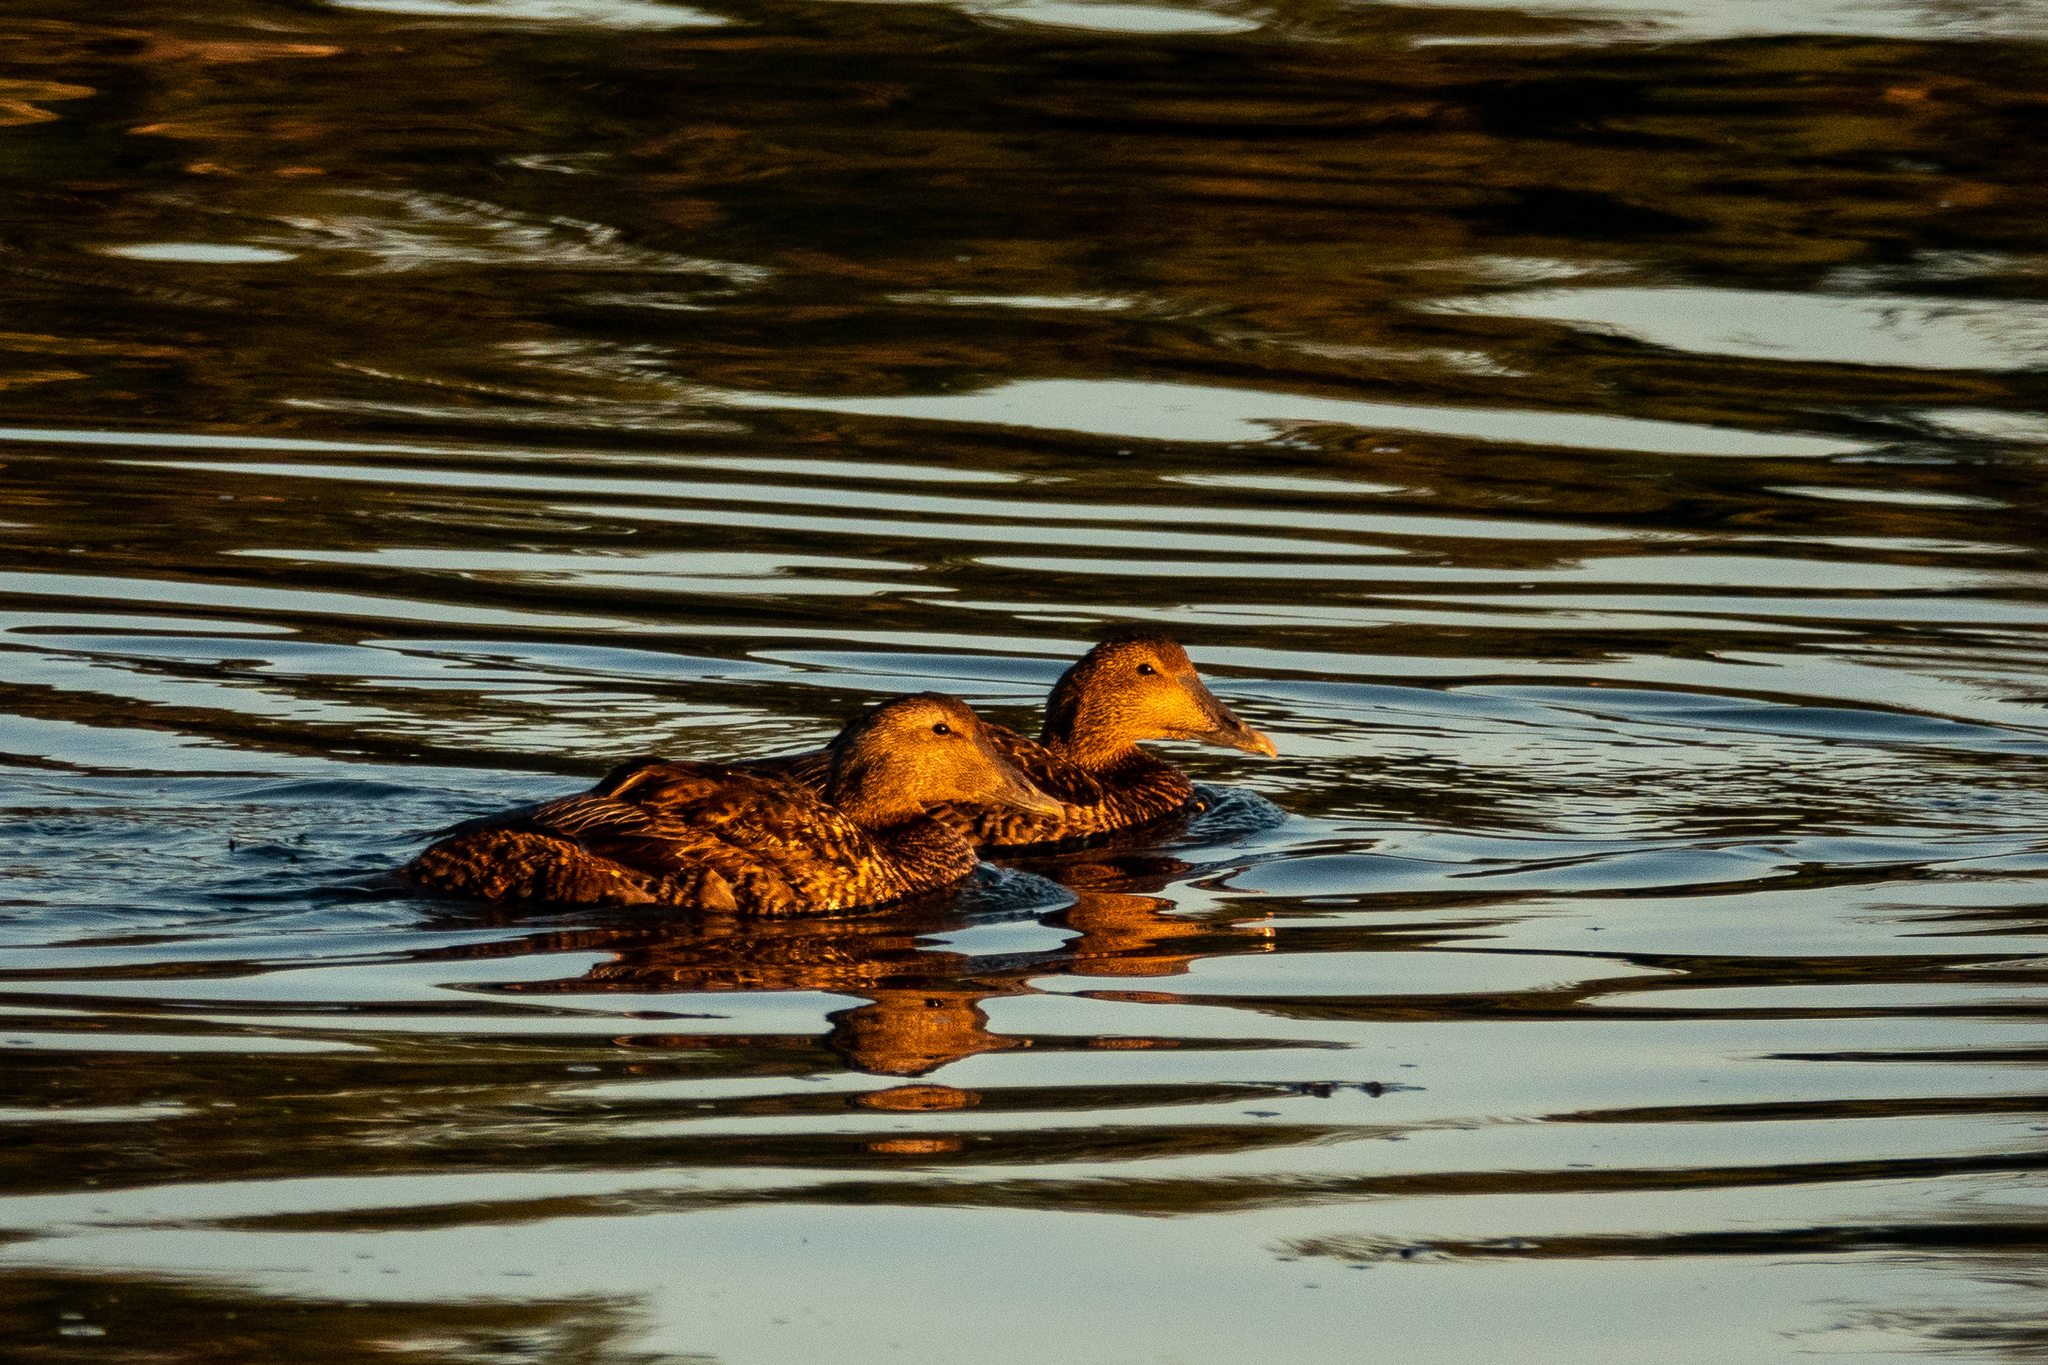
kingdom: Animalia
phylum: Chordata
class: Aves
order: Anseriformes
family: Anatidae
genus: Somateria
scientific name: Somateria mollissima
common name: Common eider
